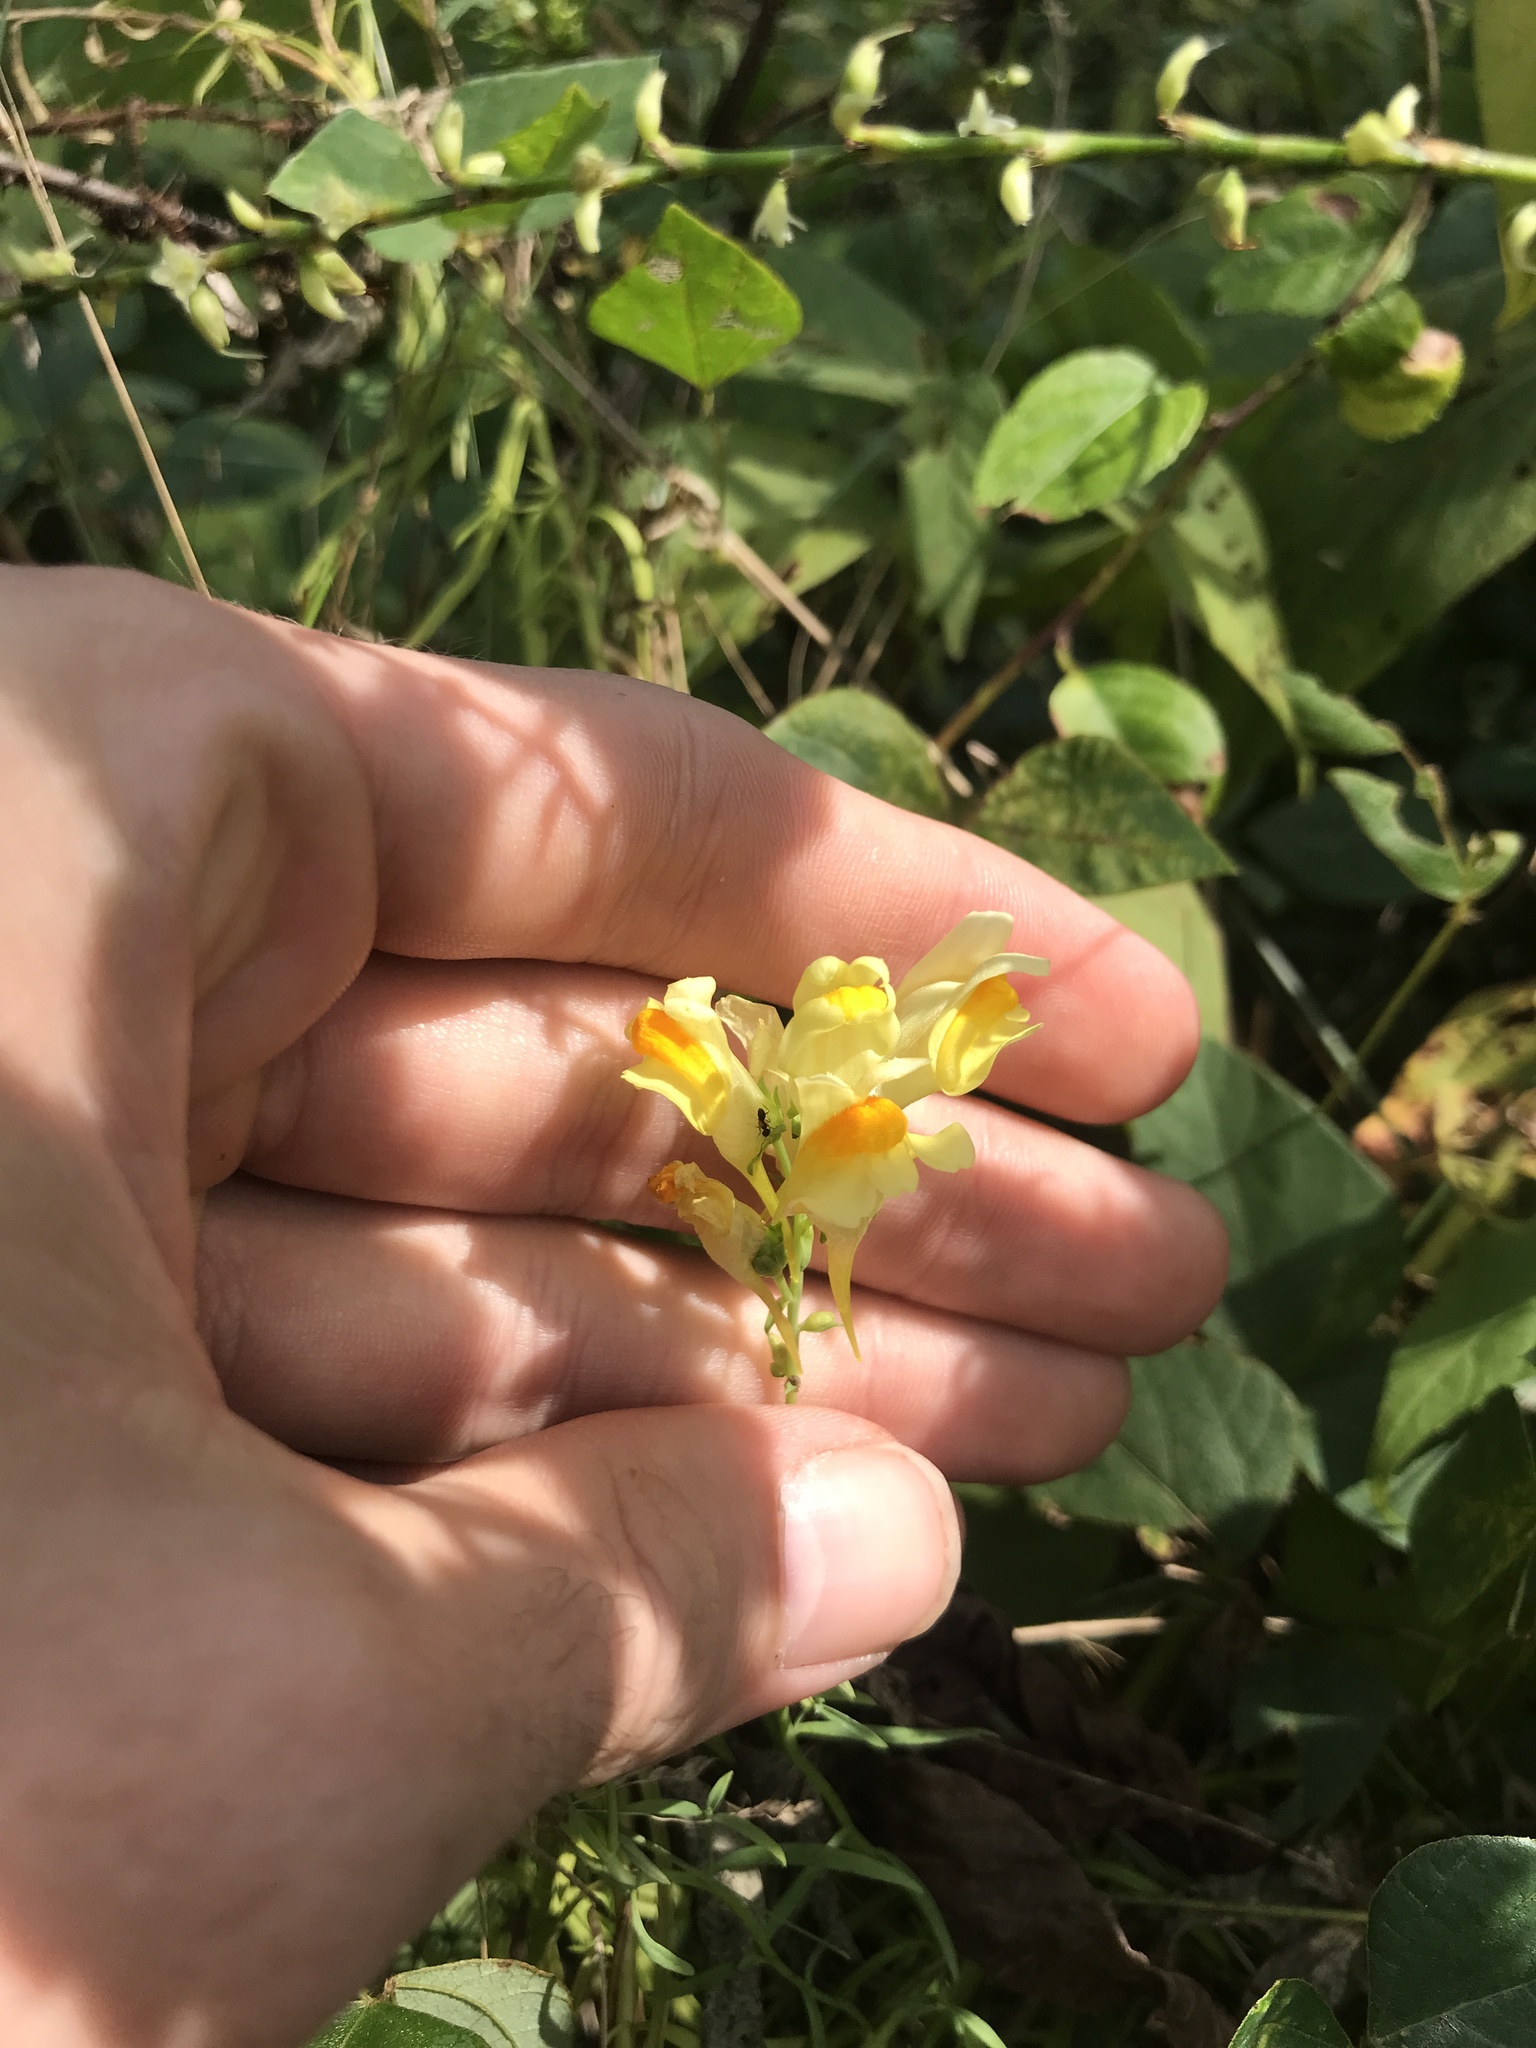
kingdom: Plantae
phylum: Tracheophyta
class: Magnoliopsida
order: Lamiales
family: Plantaginaceae
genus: Linaria
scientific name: Linaria vulgaris
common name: Butter and eggs
